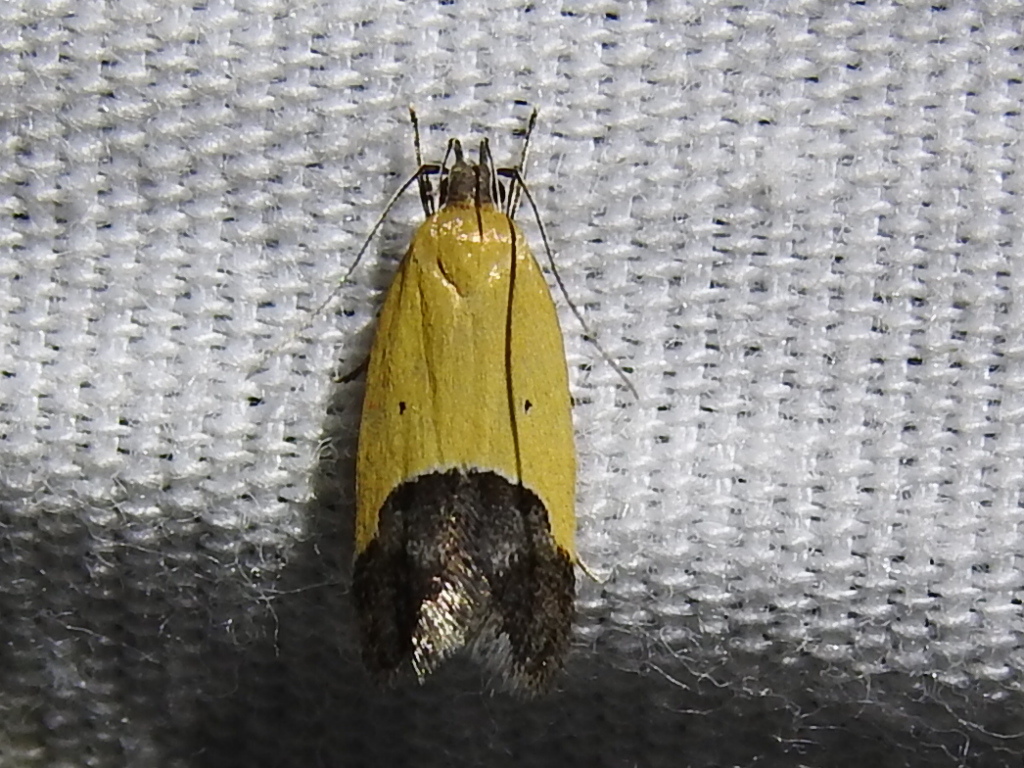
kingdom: Animalia
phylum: Arthropoda
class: Insecta
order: Lepidoptera
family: Momphidae
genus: Triclonella
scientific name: Triclonella pergandeella
